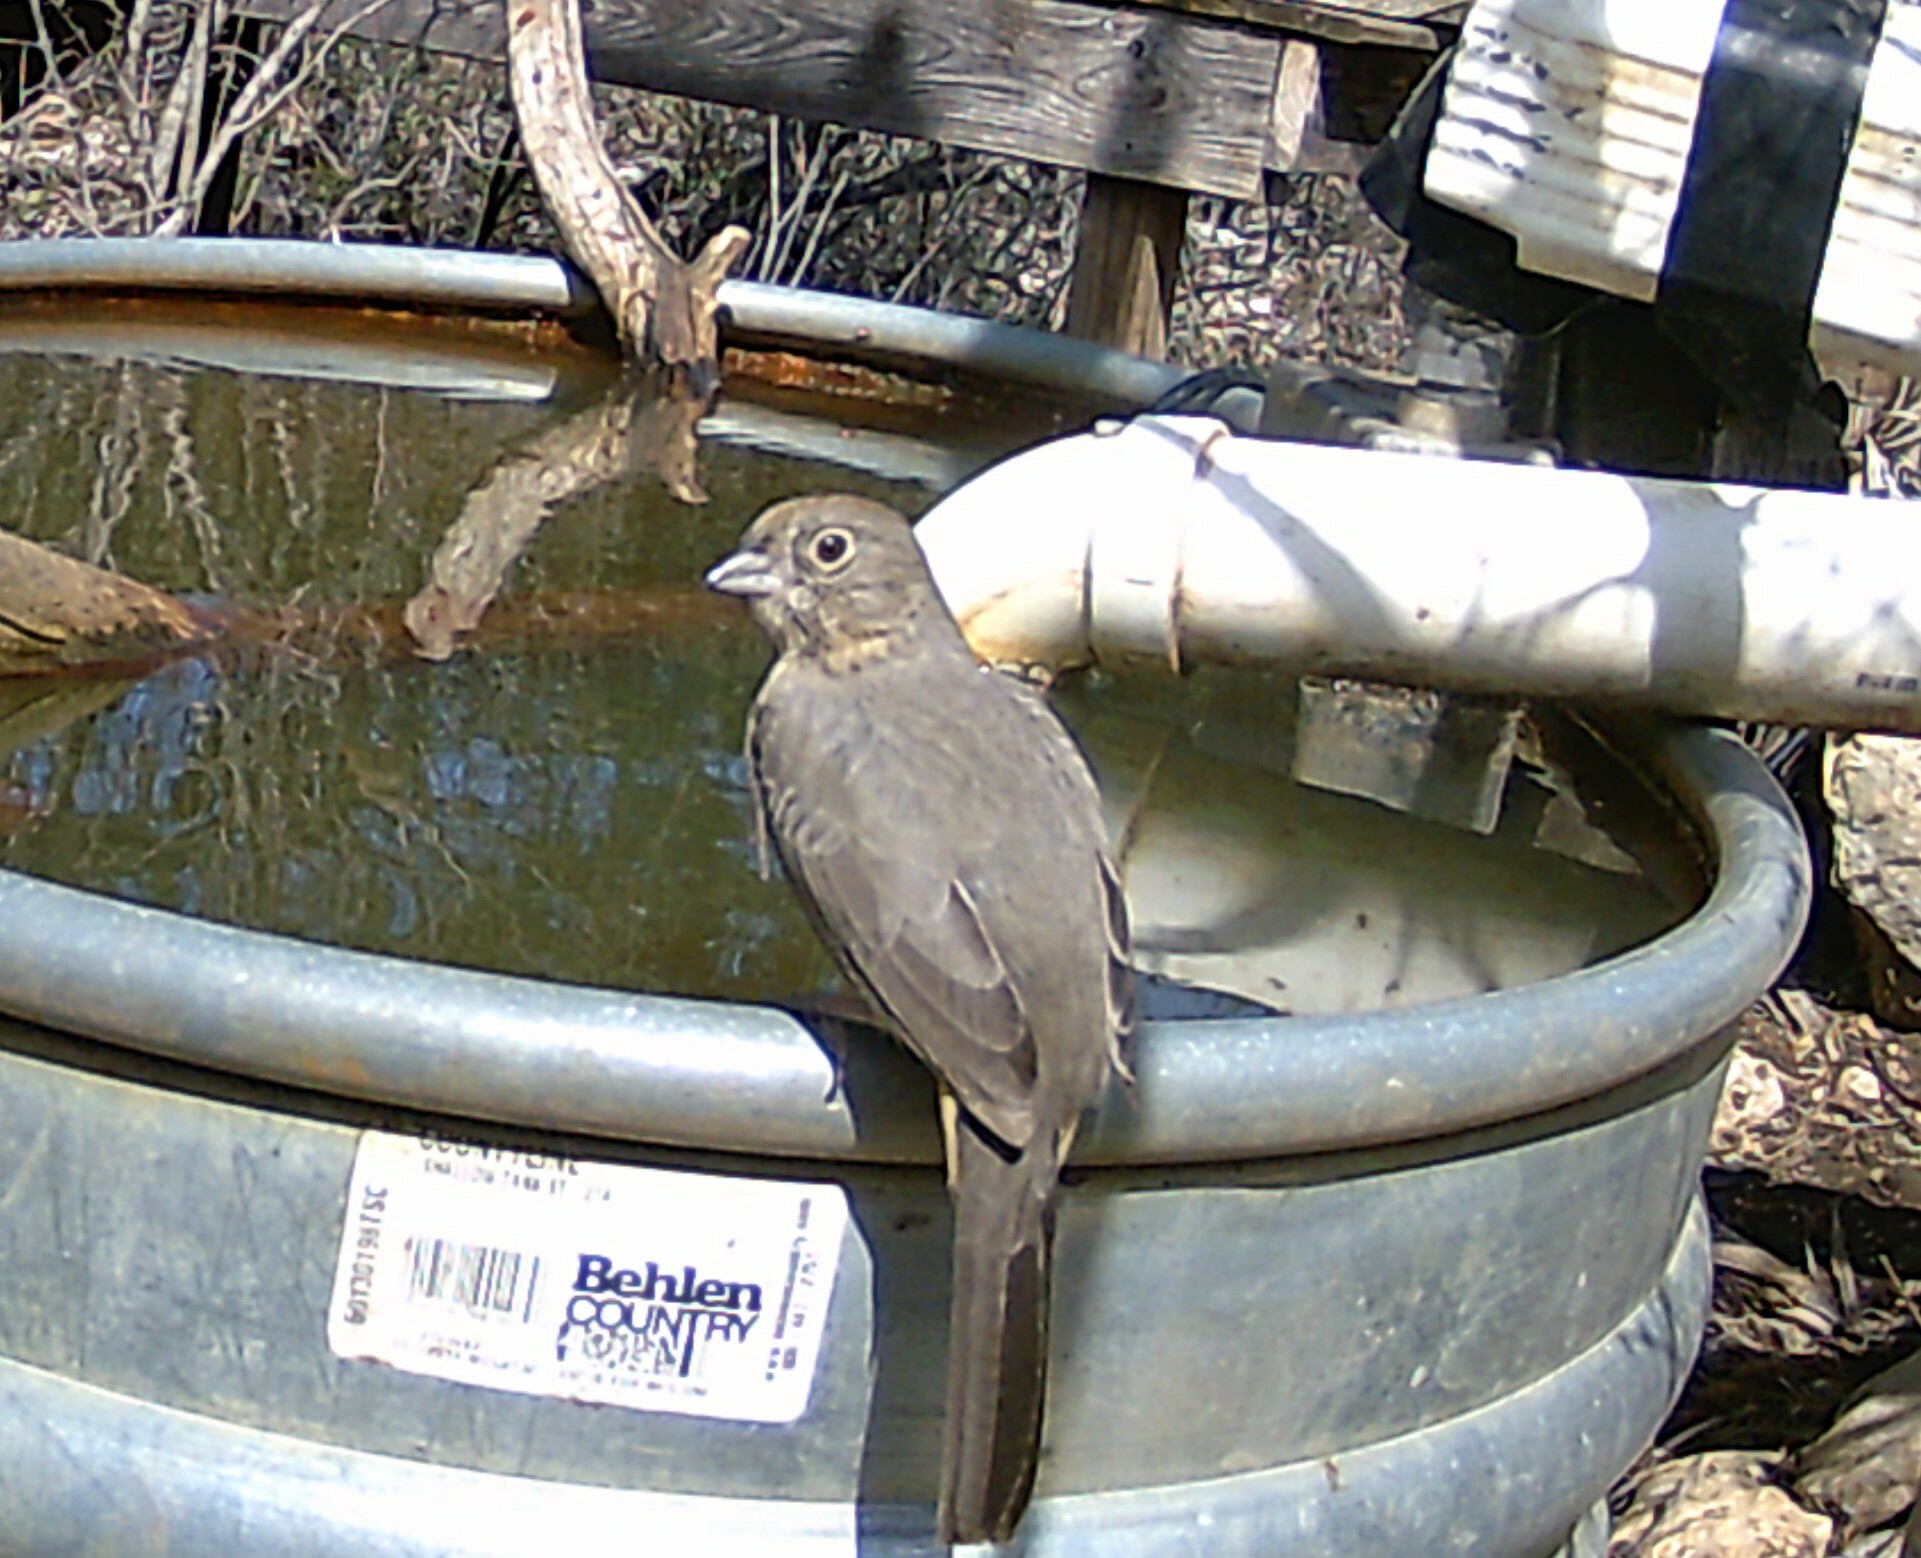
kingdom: Animalia
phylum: Chordata
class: Aves
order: Passeriformes
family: Passerellidae
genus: Melozone
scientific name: Melozone fusca
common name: Canyon towhee
